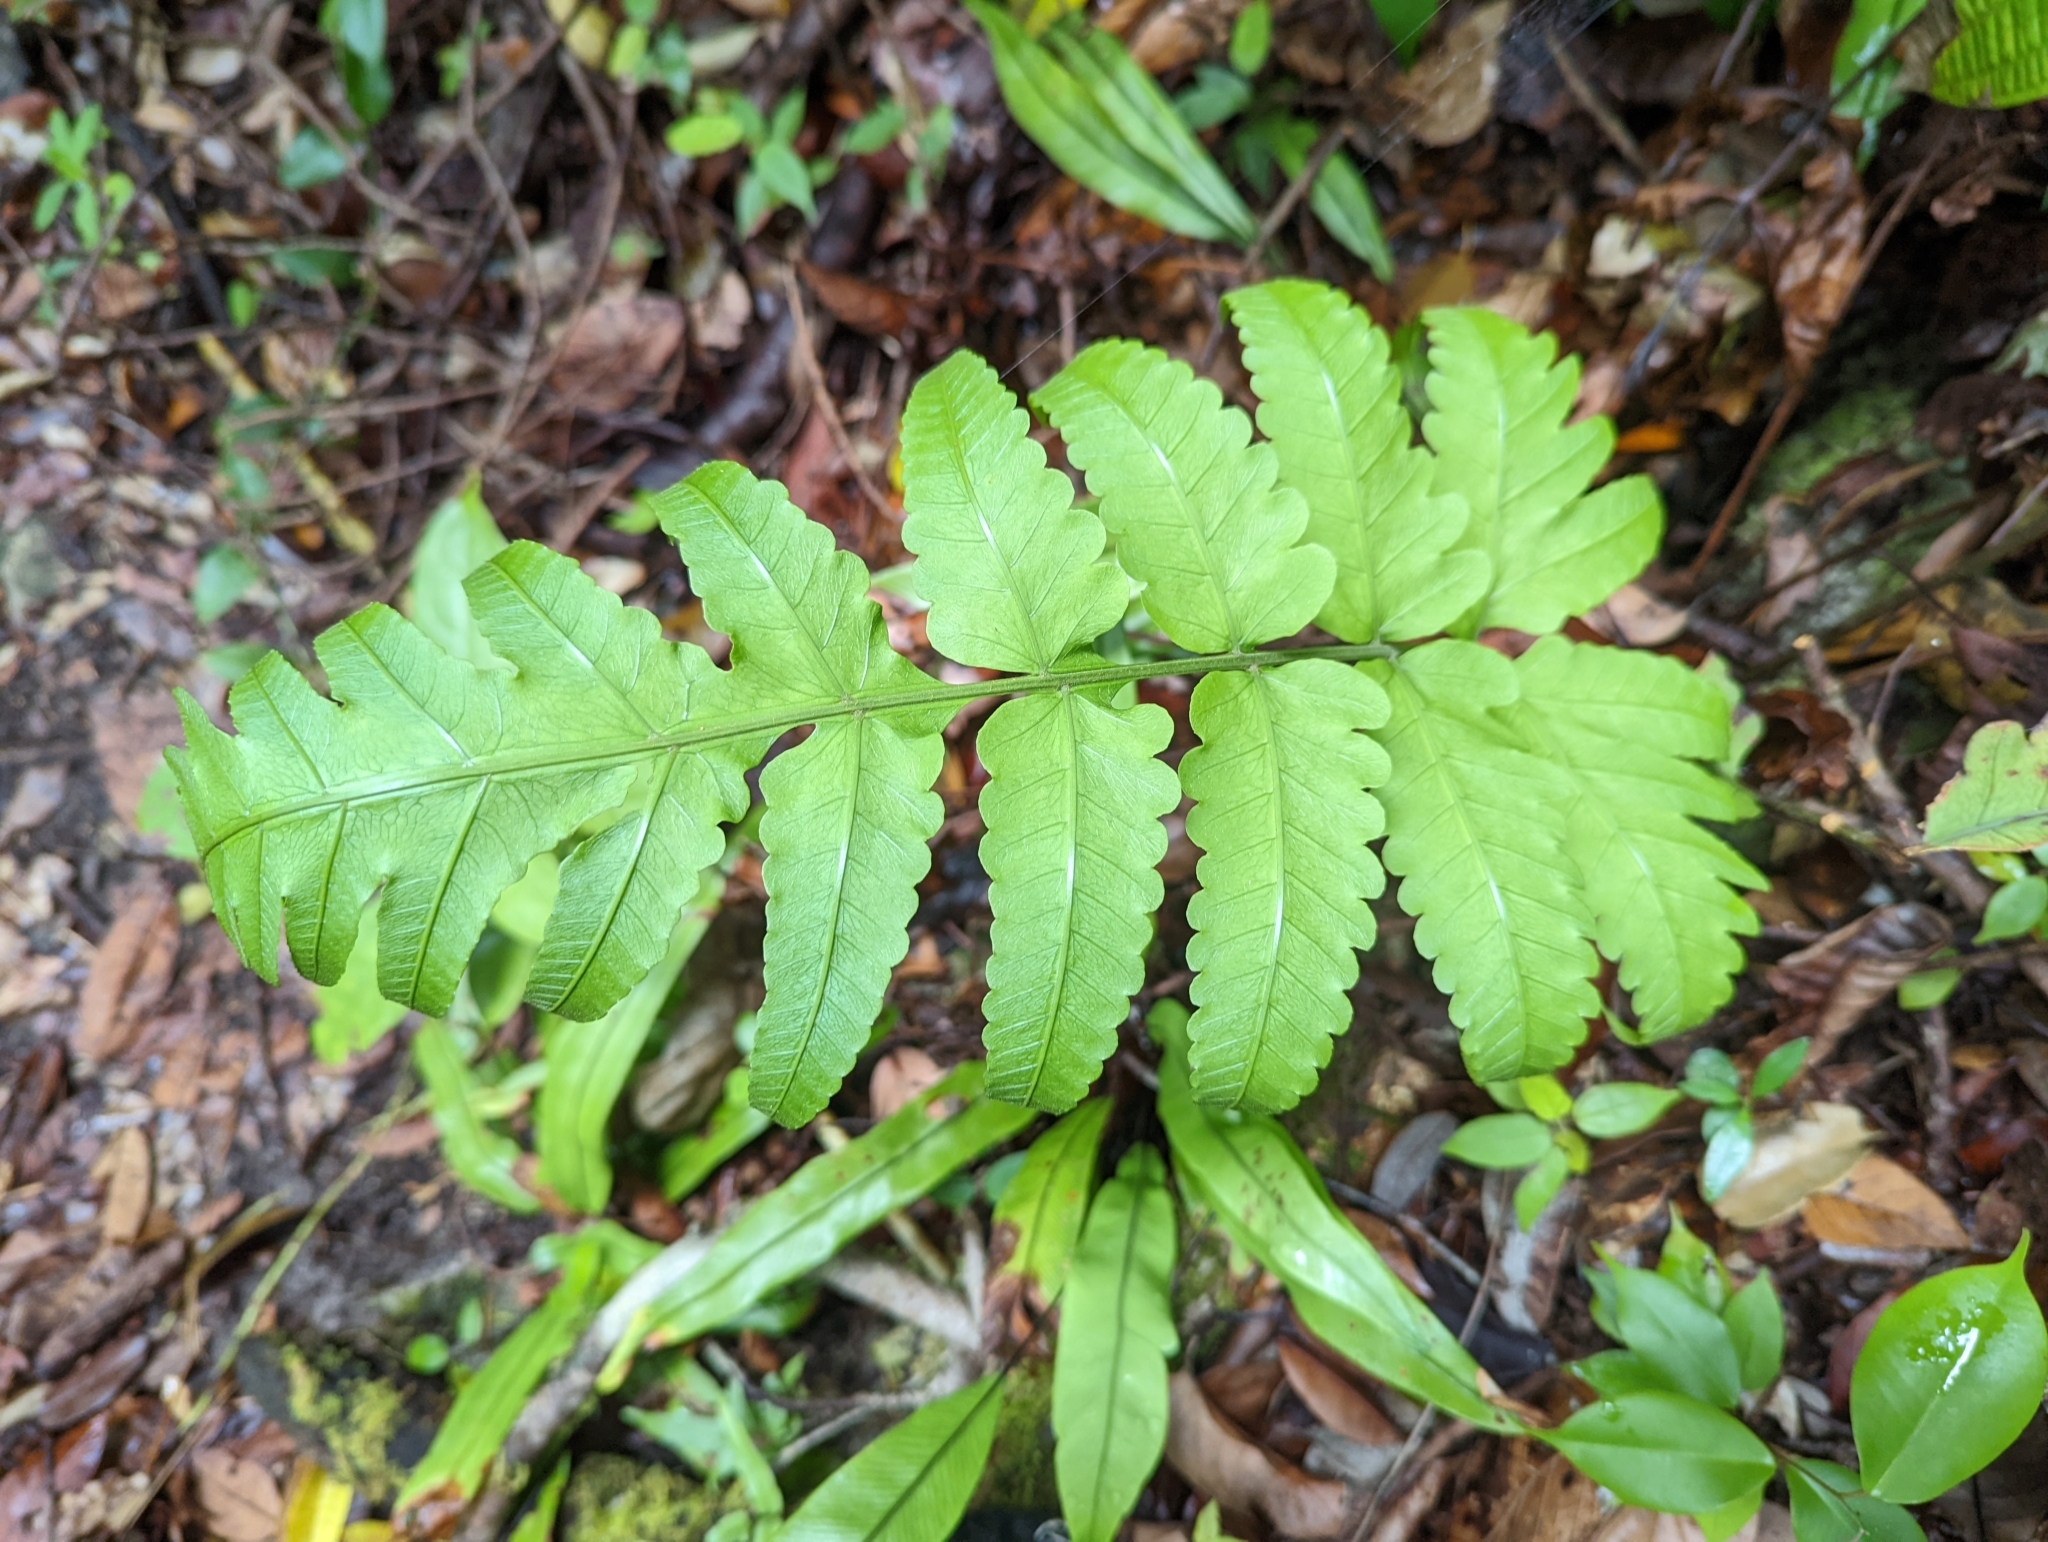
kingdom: Plantae
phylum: Tracheophyta
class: Polypodiopsida
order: Polypodiales
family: Dryopteridaceae
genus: Pleocnemia
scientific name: Pleocnemia irregularis
